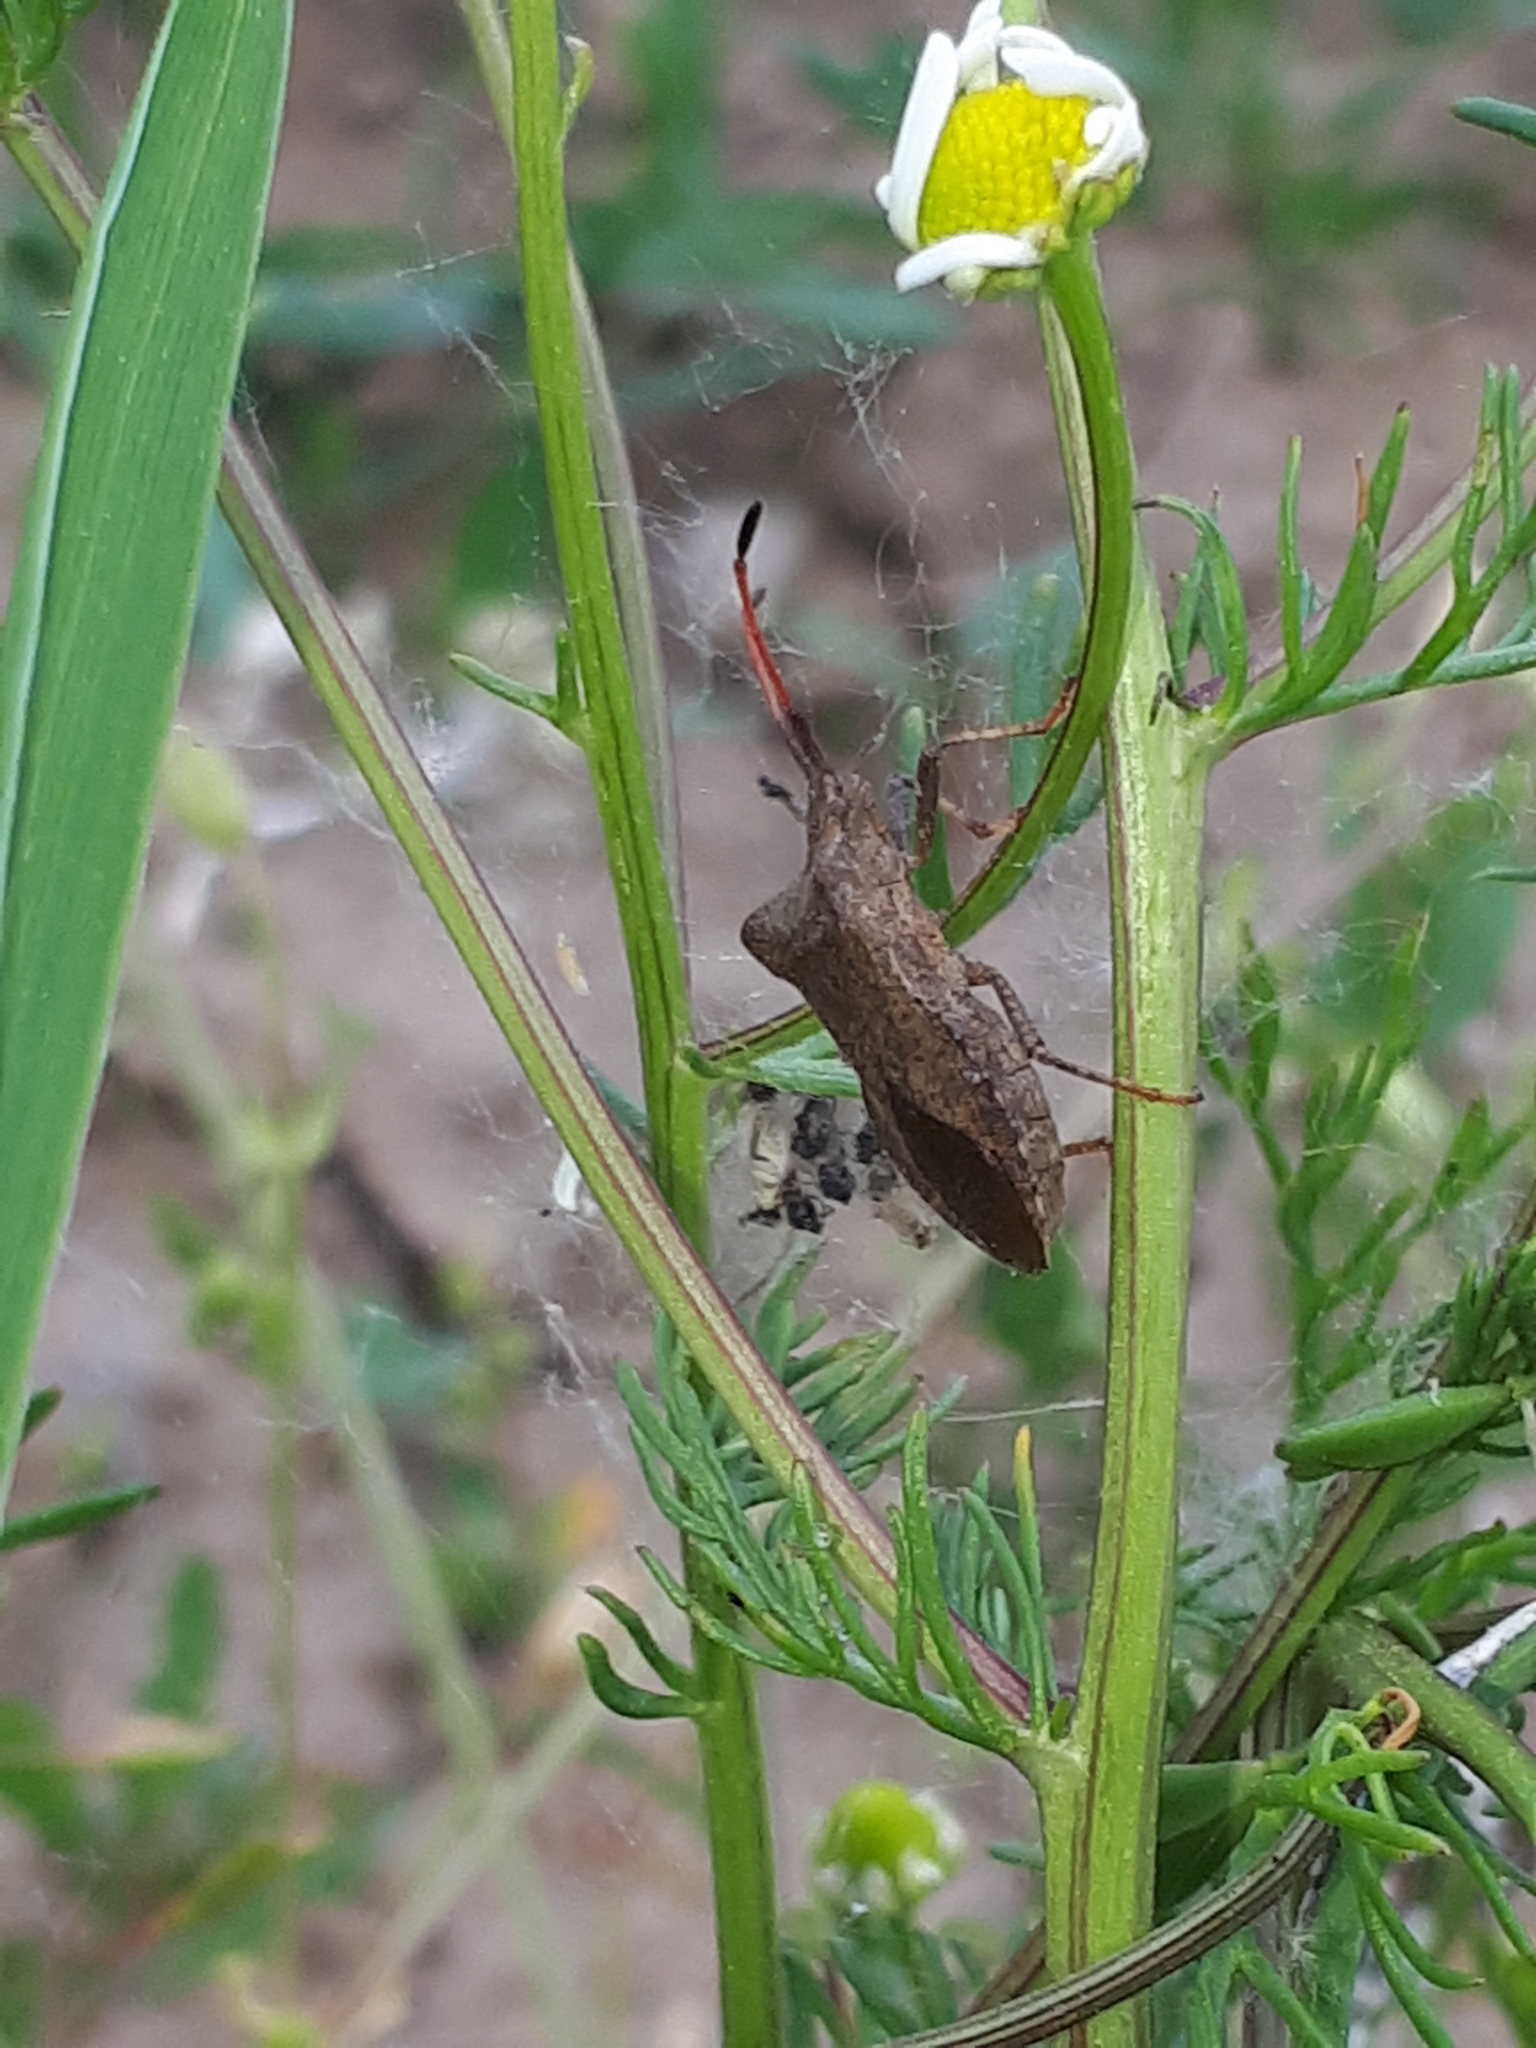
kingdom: Animalia
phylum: Arthropoda
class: Insecta
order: Hemiptera
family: Coreidae
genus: Coreus
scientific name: Coreus marginatus
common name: Dock bug
